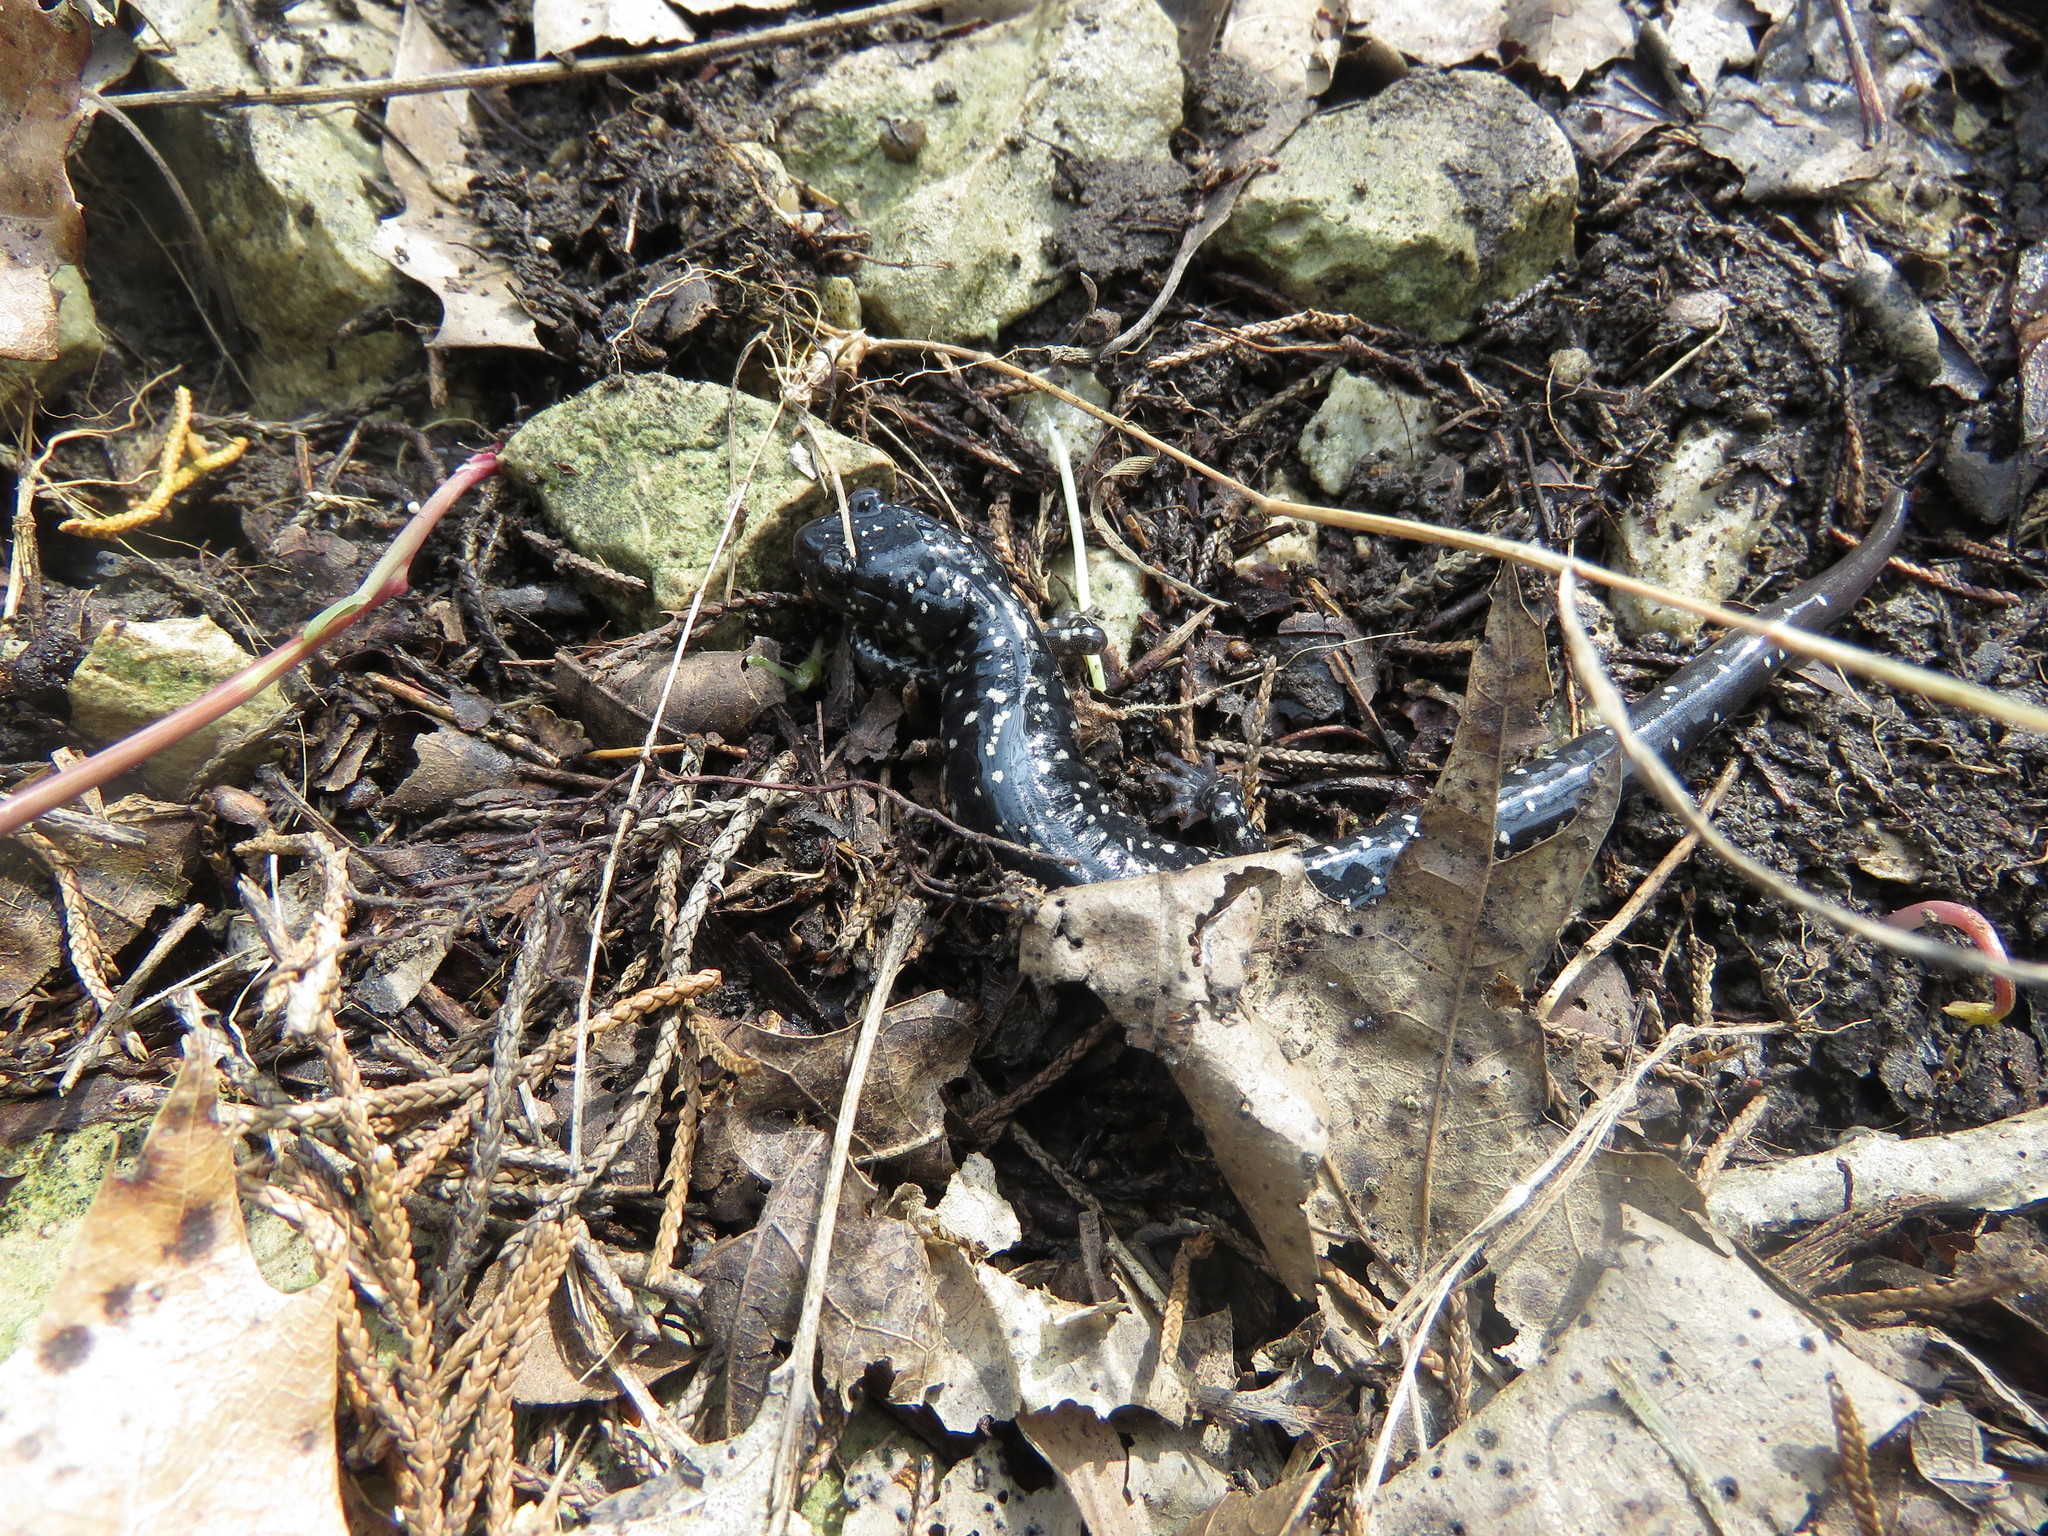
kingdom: Animalia
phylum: Chordata
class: Amphibia
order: Caudata
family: Plethodontidae
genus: Plethodon
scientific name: Plethodon albagula
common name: Western slimy salamander
